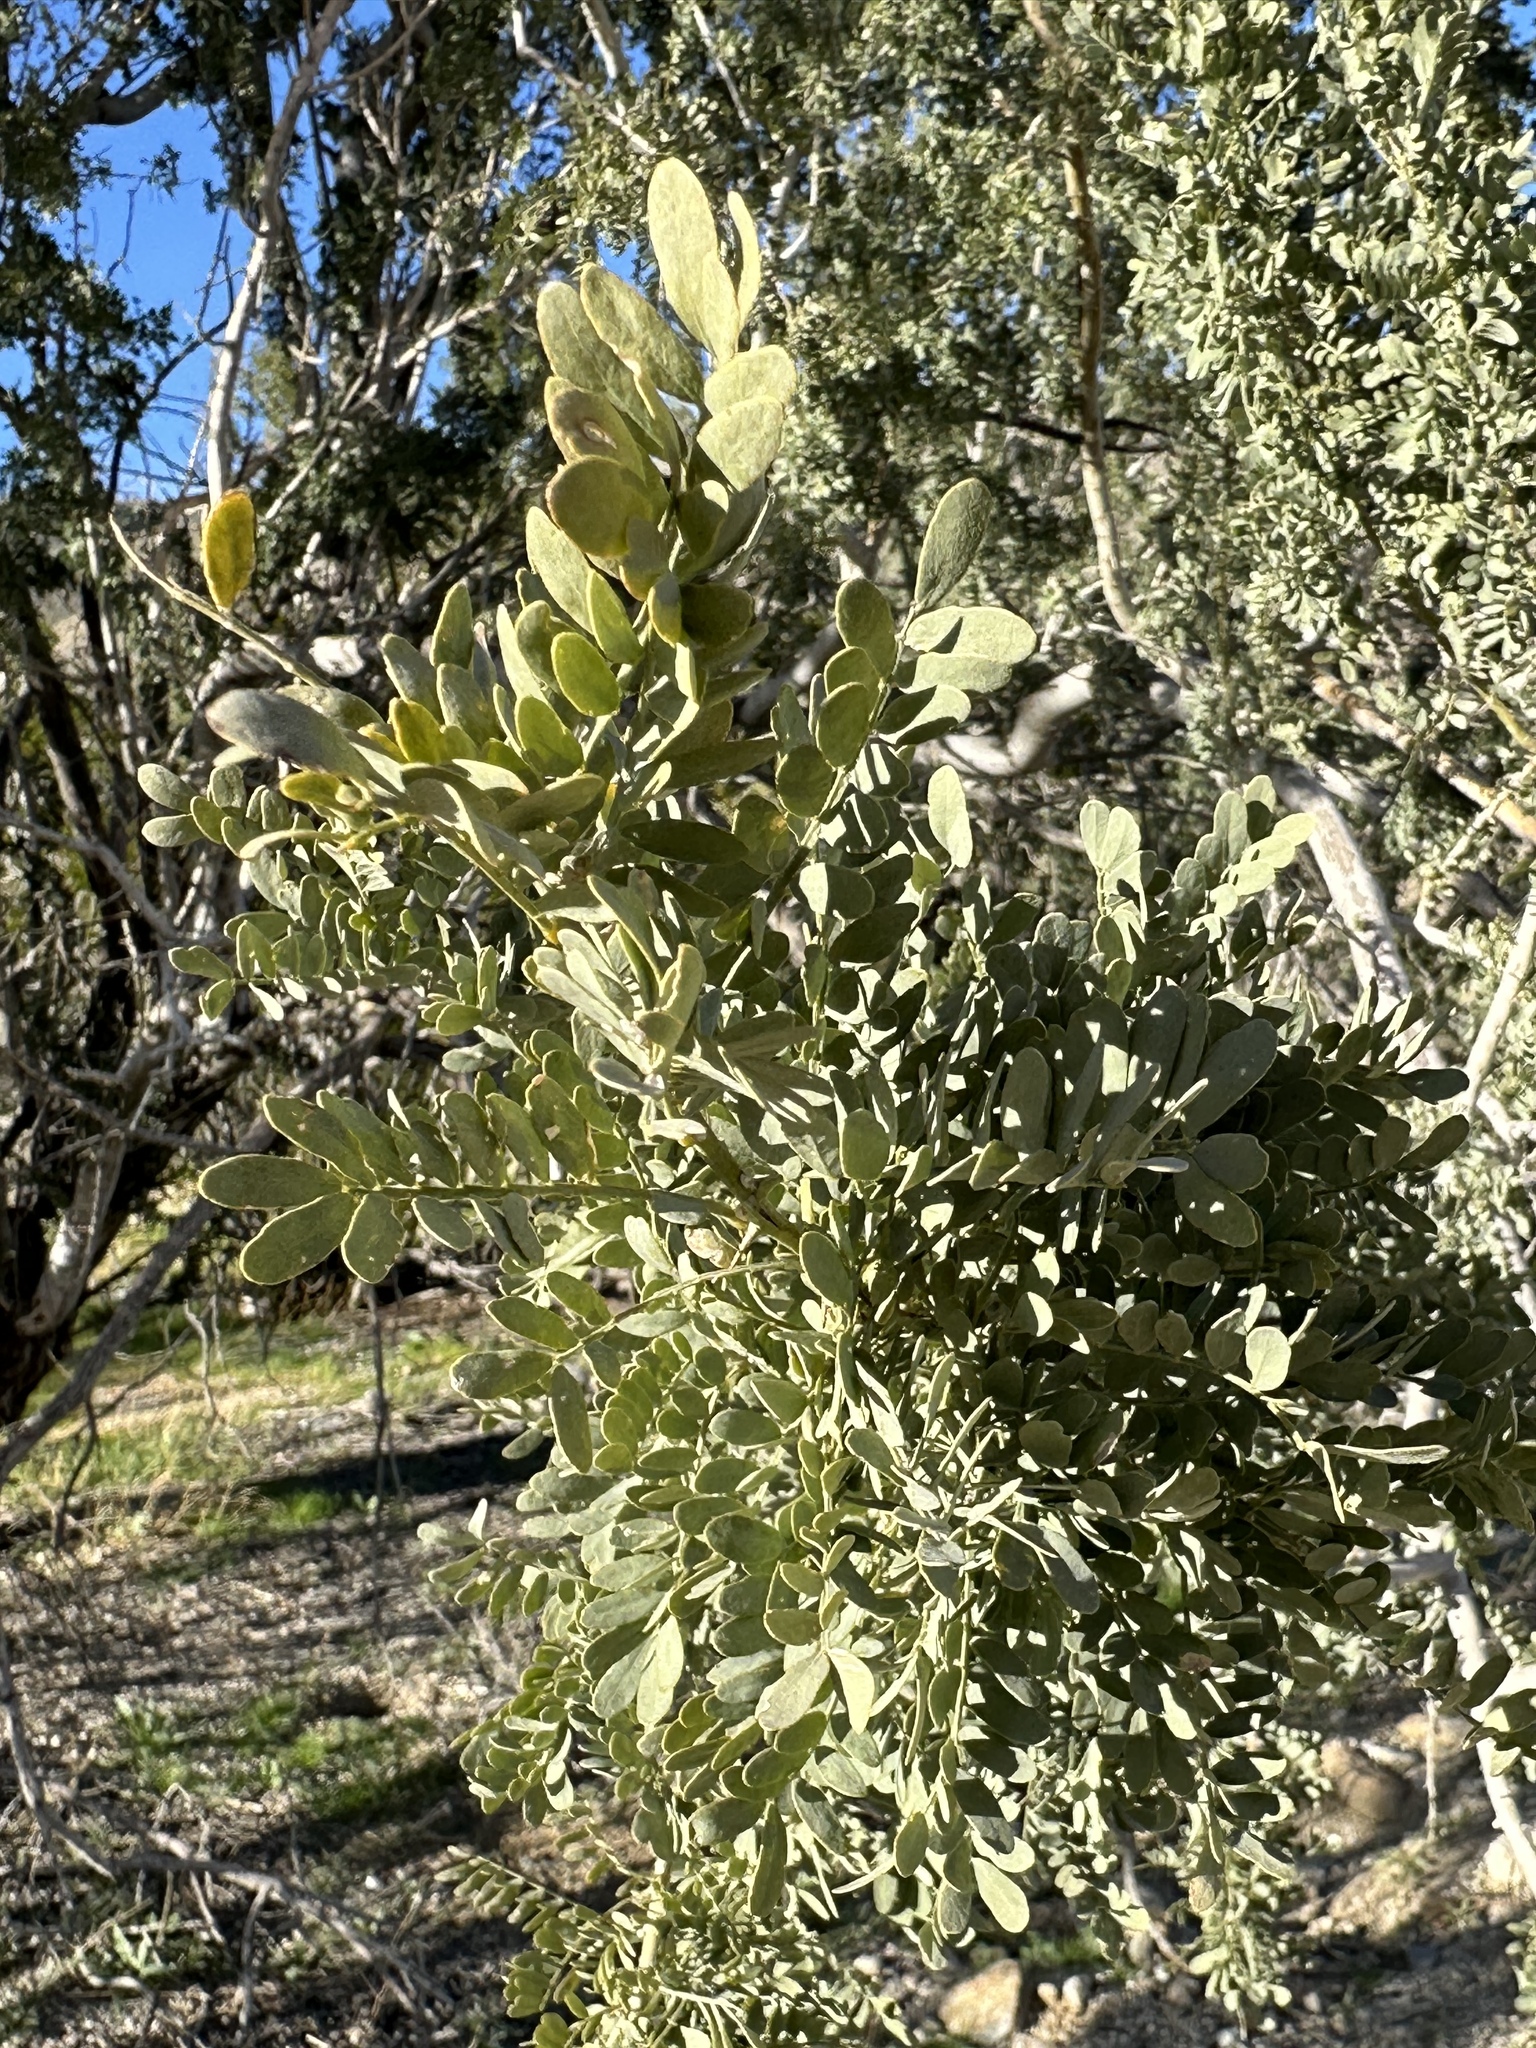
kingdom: Plantae
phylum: Tracheophyta
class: Magnoliopsida
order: Fabales
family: Fabaceae
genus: Olneya
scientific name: Olneya tesota
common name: Desert ironwood
